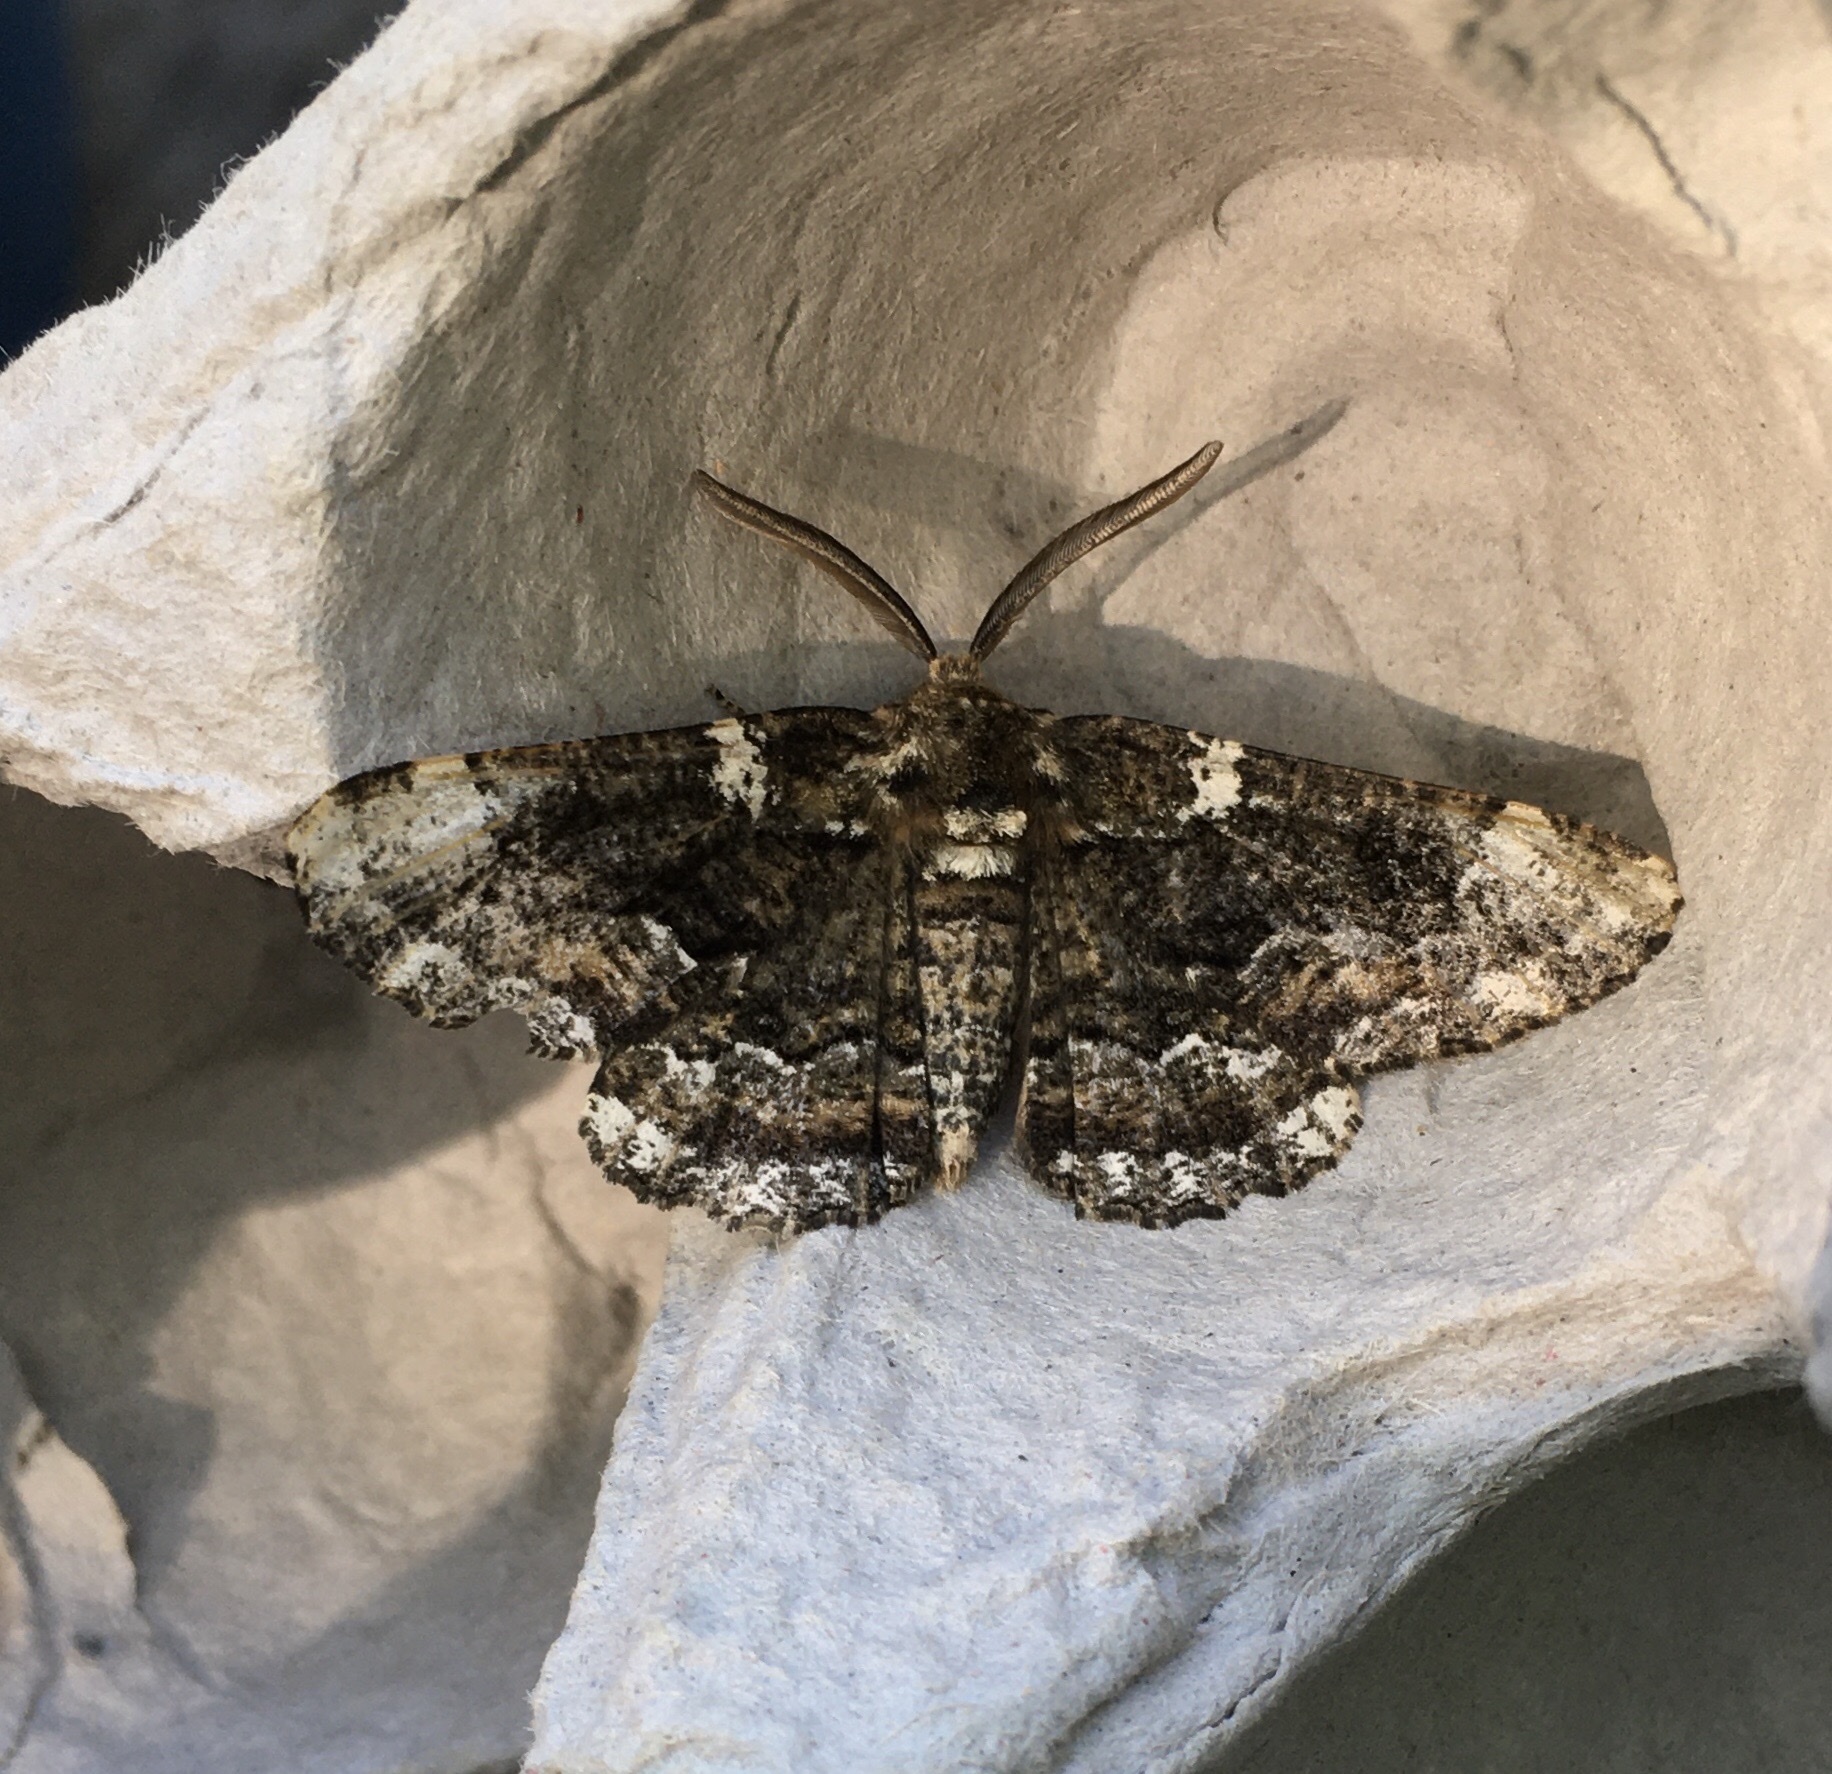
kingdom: Animalia
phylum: Arthropoda
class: Insecta
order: Lepidoptera
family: Geometridae
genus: Phaeoura
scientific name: Phaeoura quernaria
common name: Oak beauty
